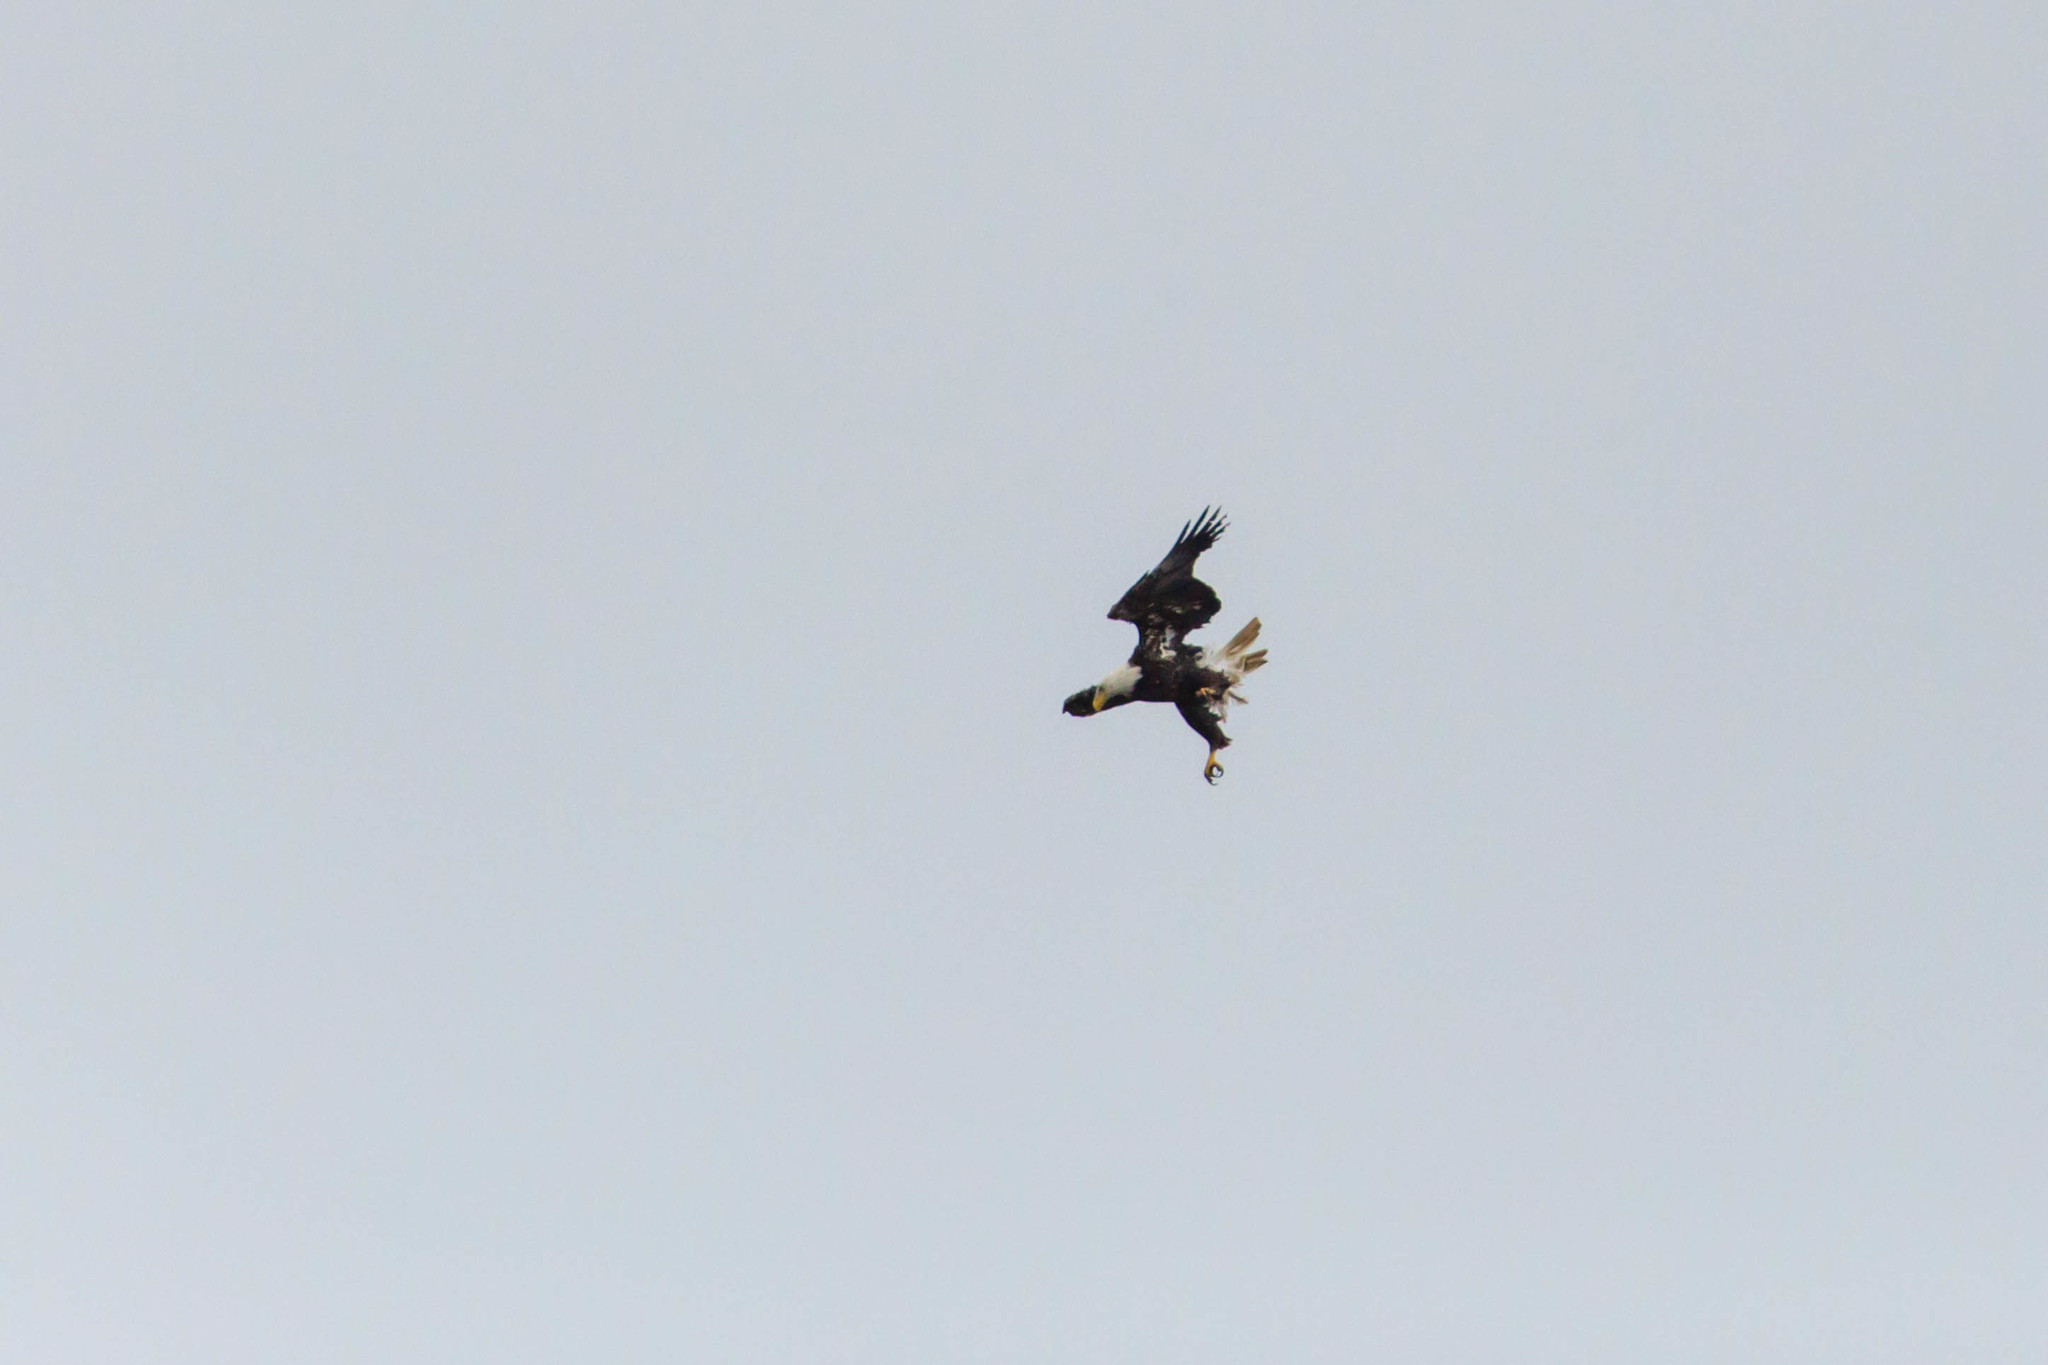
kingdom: Animalia
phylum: Chordata
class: Aves
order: Accipitriformes
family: Accipitridae
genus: Haliaeetus
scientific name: Haliaeetus leucocephalus
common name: Bald eagle
